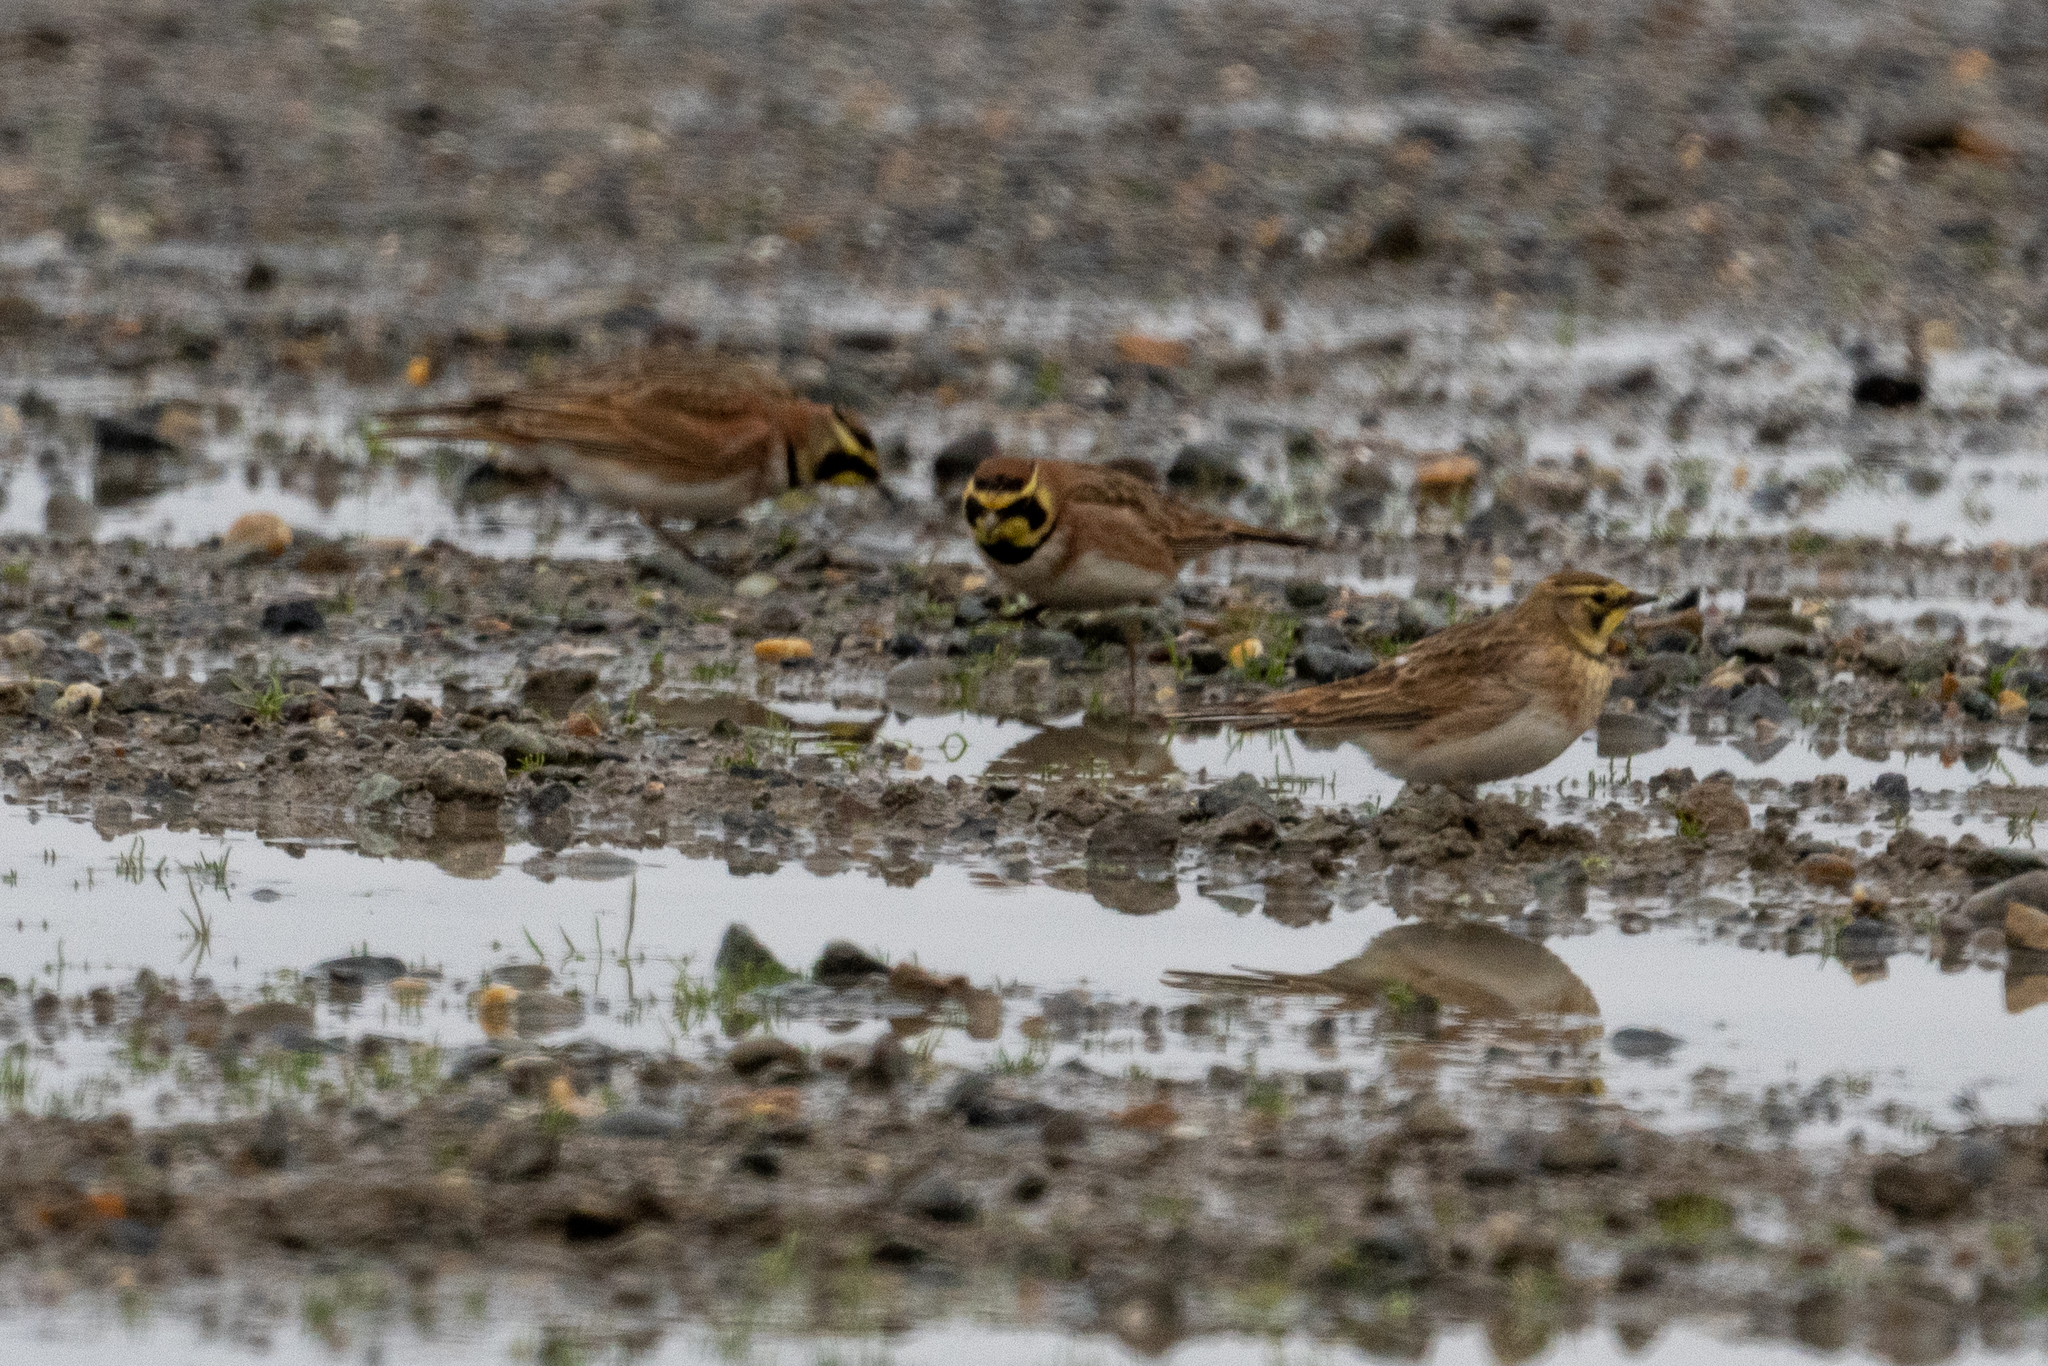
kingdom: Animalia
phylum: Chordata
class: Aves
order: Passeriformes
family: Alaudidae
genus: Eremophila
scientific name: Eremophila alpestris
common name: Horned lark
